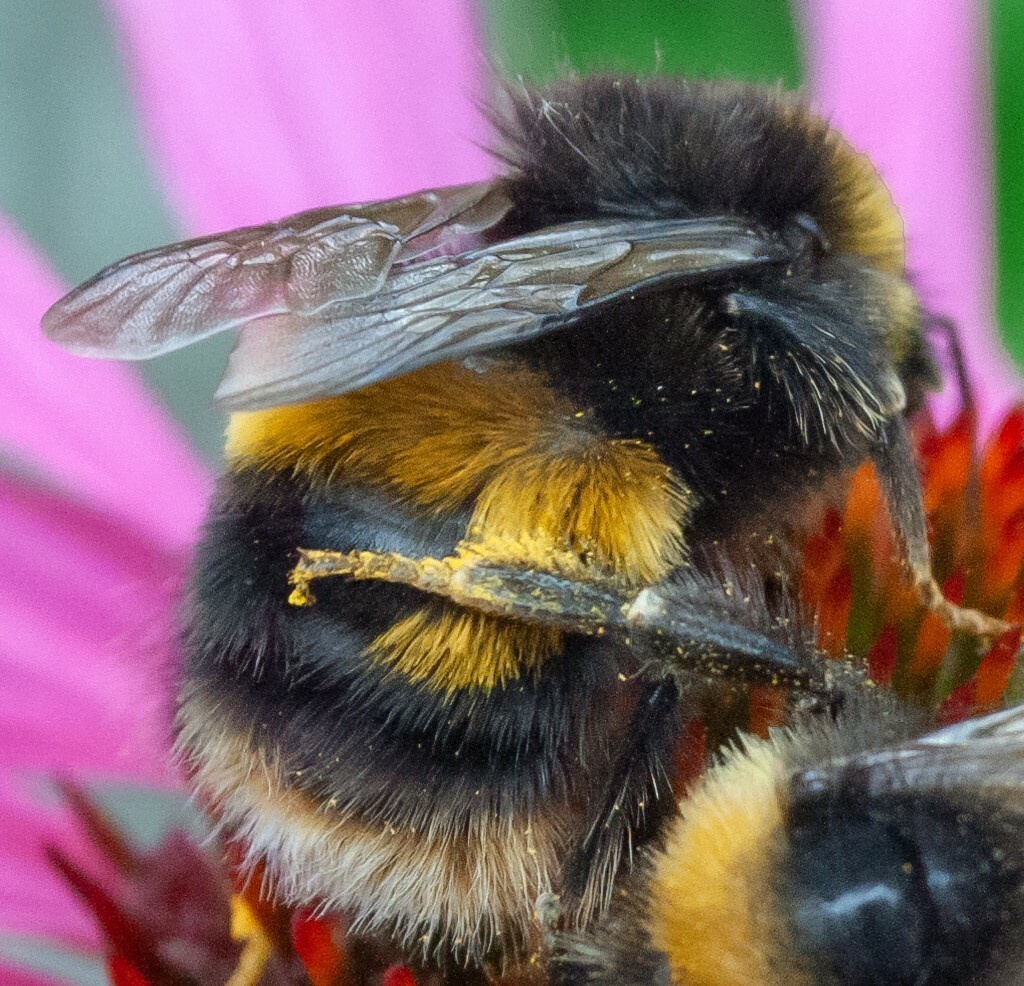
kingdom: Animalia
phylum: Arthropoda
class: Insecta
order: Hymenoptera
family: Apidae
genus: Bombus
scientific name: Bombus terrestris
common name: Buff-tailed bumblebee
